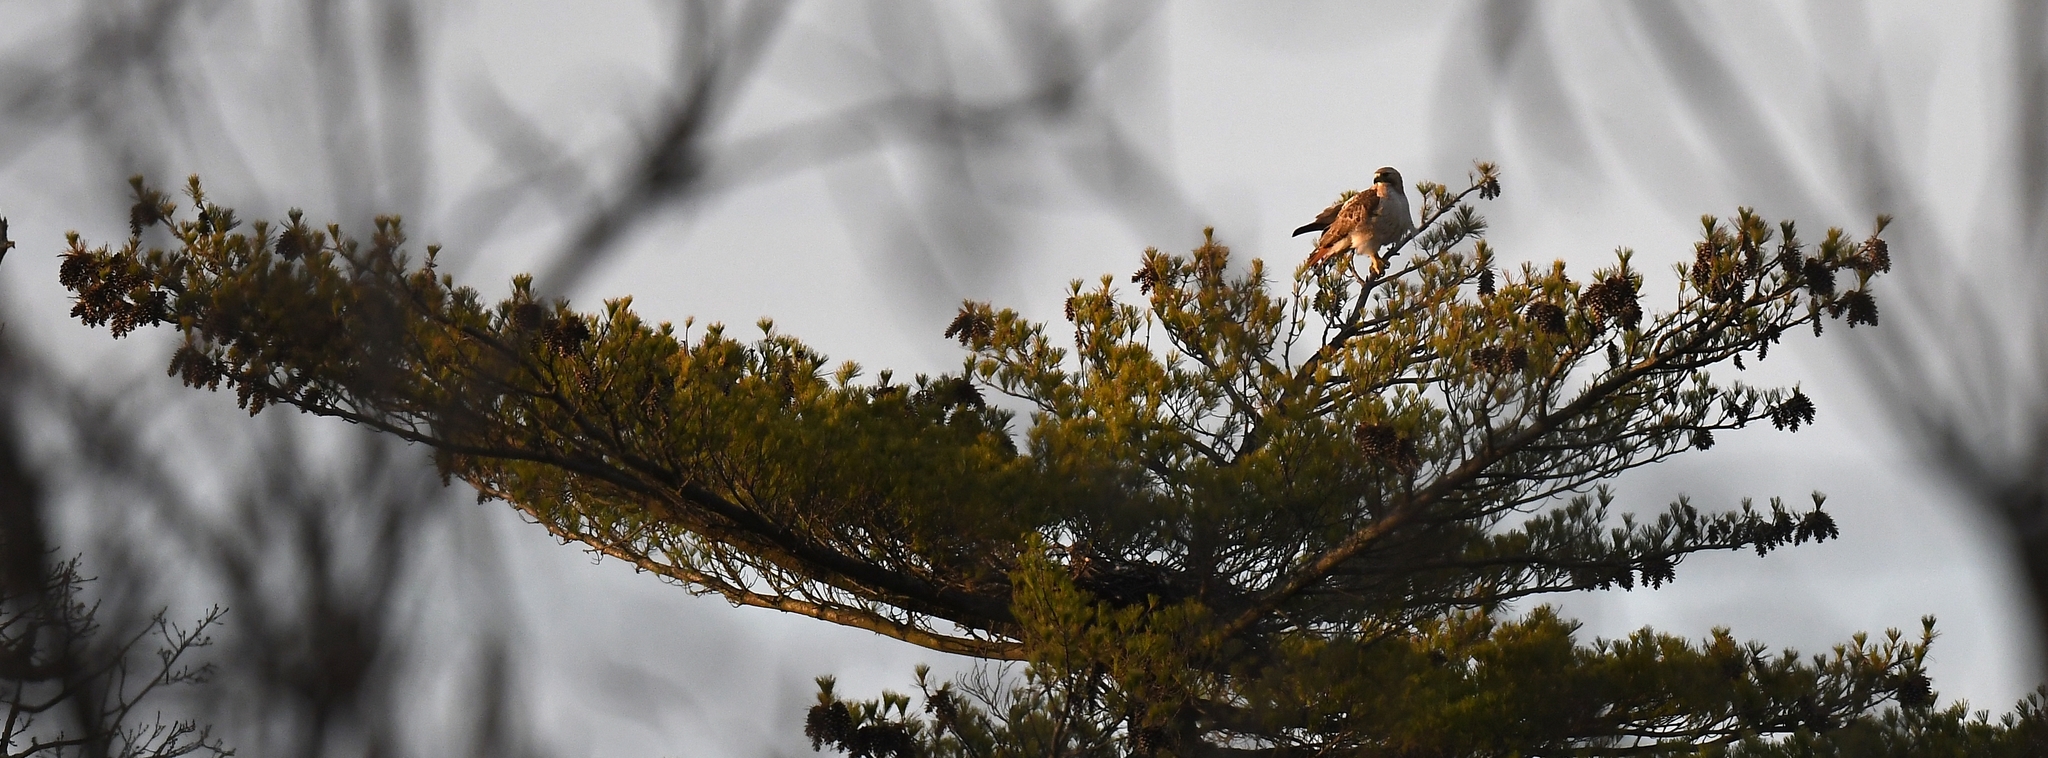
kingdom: Animalia
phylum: Chordata
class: Aves
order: Accipitriformes
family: Accipitridae
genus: Buteo
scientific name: Buteo jamaicensis
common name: Red-tailed hawk
